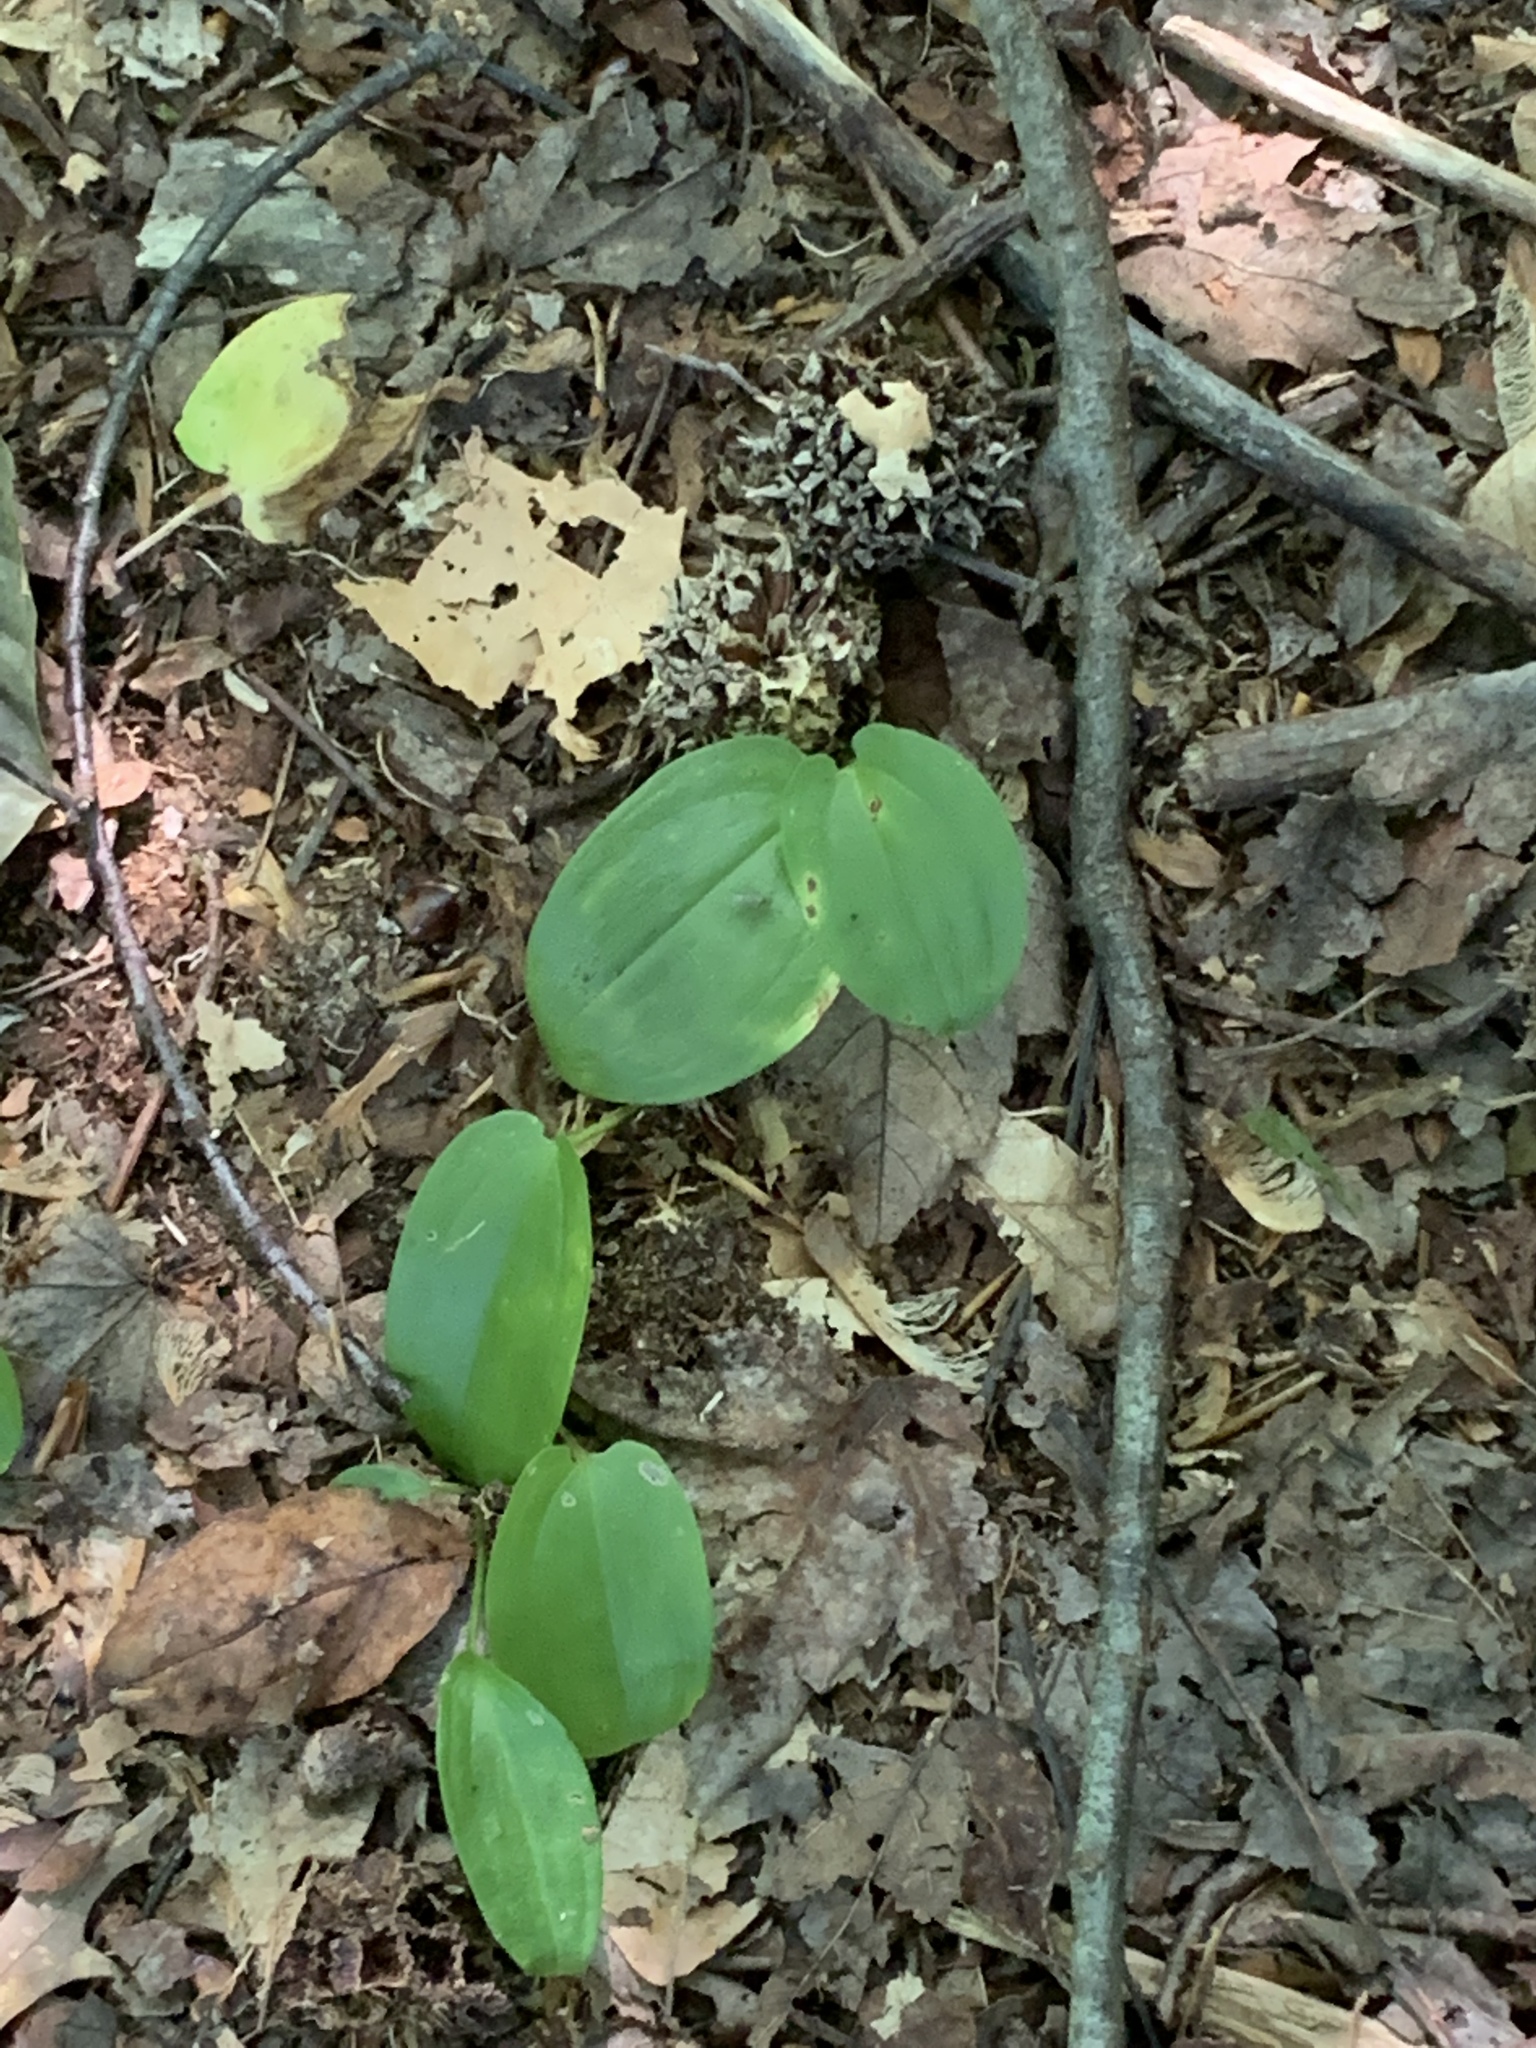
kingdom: Plantae
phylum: Tracheophyta
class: Liliopsida
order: Asparagales
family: Asparagaceae
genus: Maianthemum
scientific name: Maianthemum canadense
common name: False lily-of-the-valley
